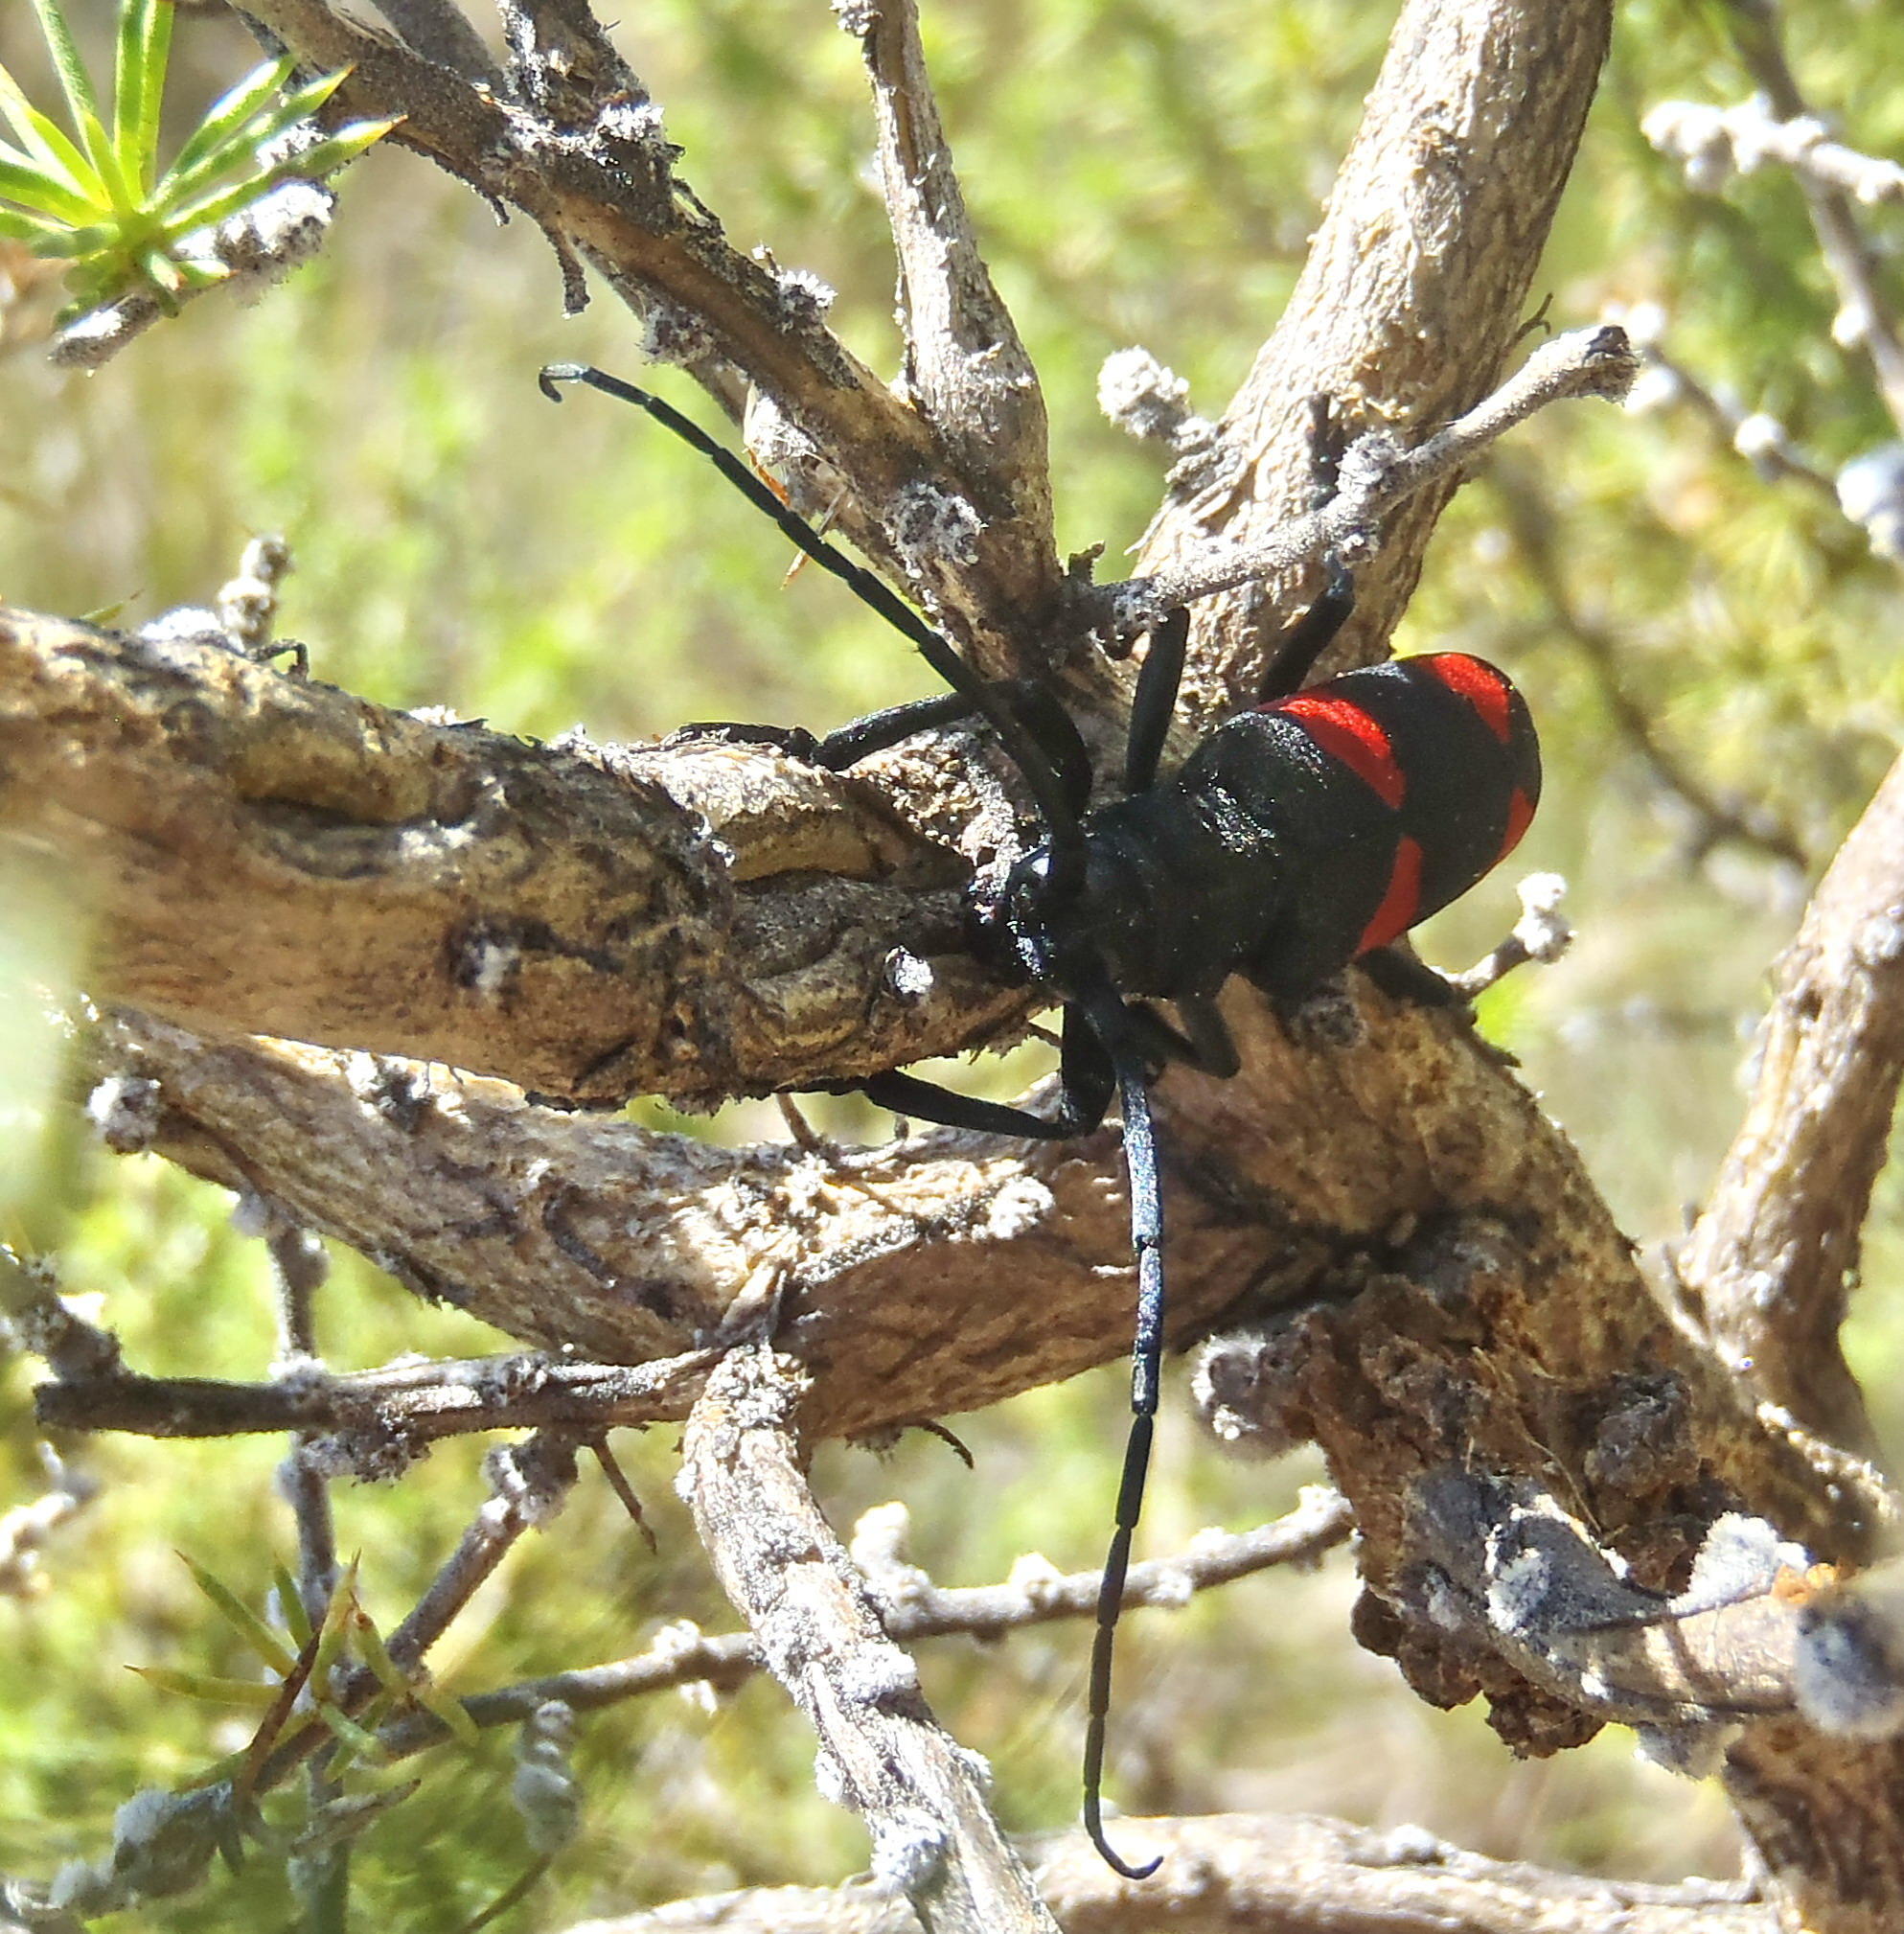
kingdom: Animalia
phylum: Arthropoda
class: Insecta
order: Coleoptera
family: Cerambycidae
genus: Ceroplesis
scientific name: Ceroplesis aethiops
